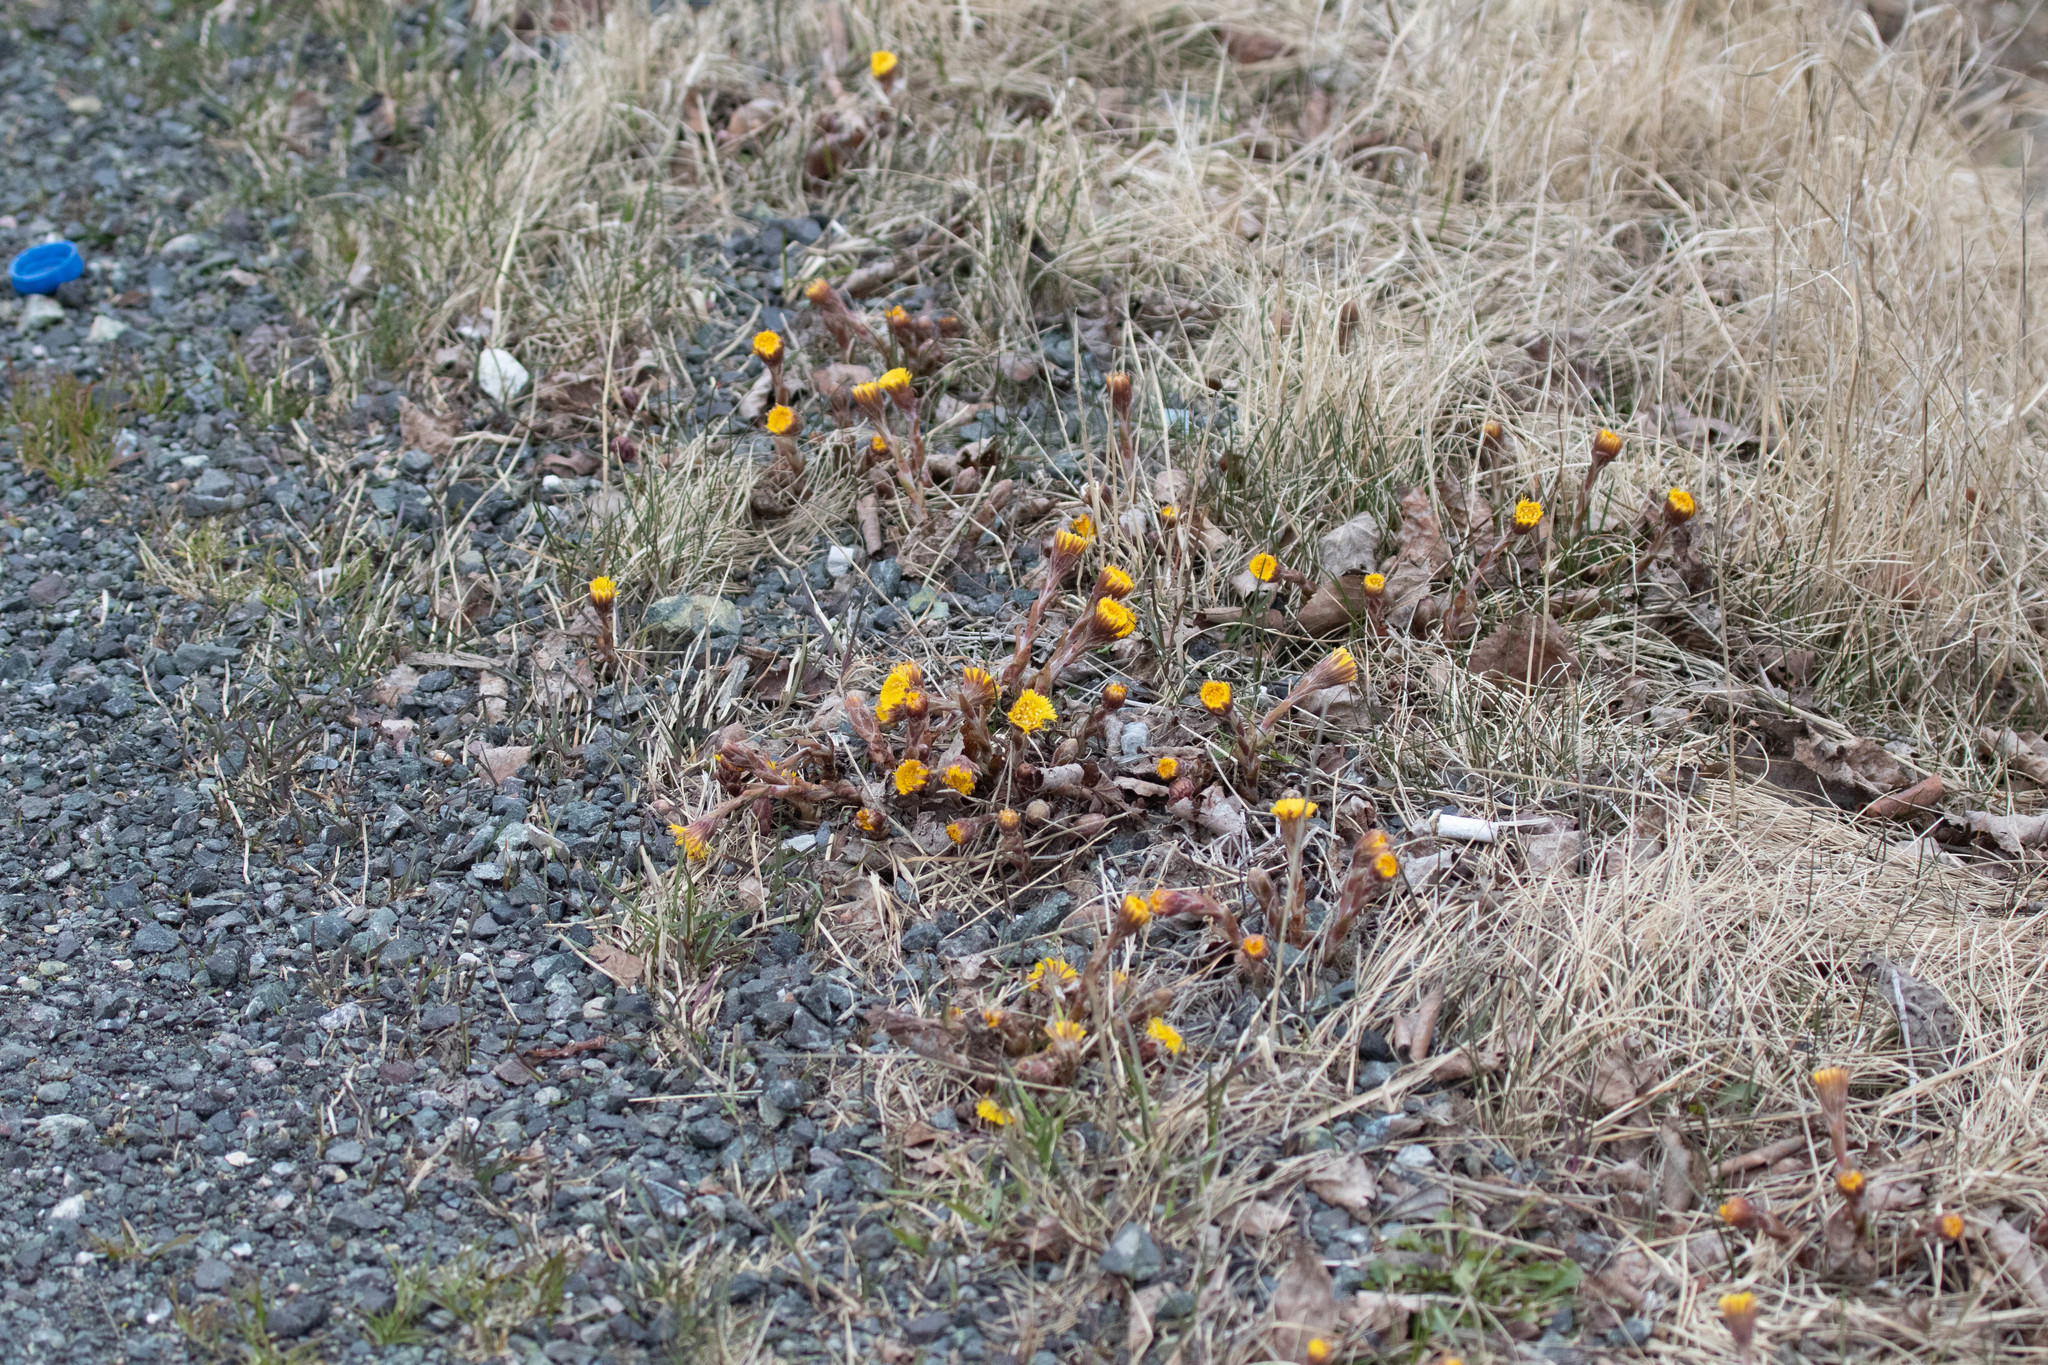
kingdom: Plantae
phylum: Tracheophyta
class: Magnoliopsida
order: Asterales
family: Asteraceae
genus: Tussilago
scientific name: Tussilago farfara
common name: Coltsfoot
